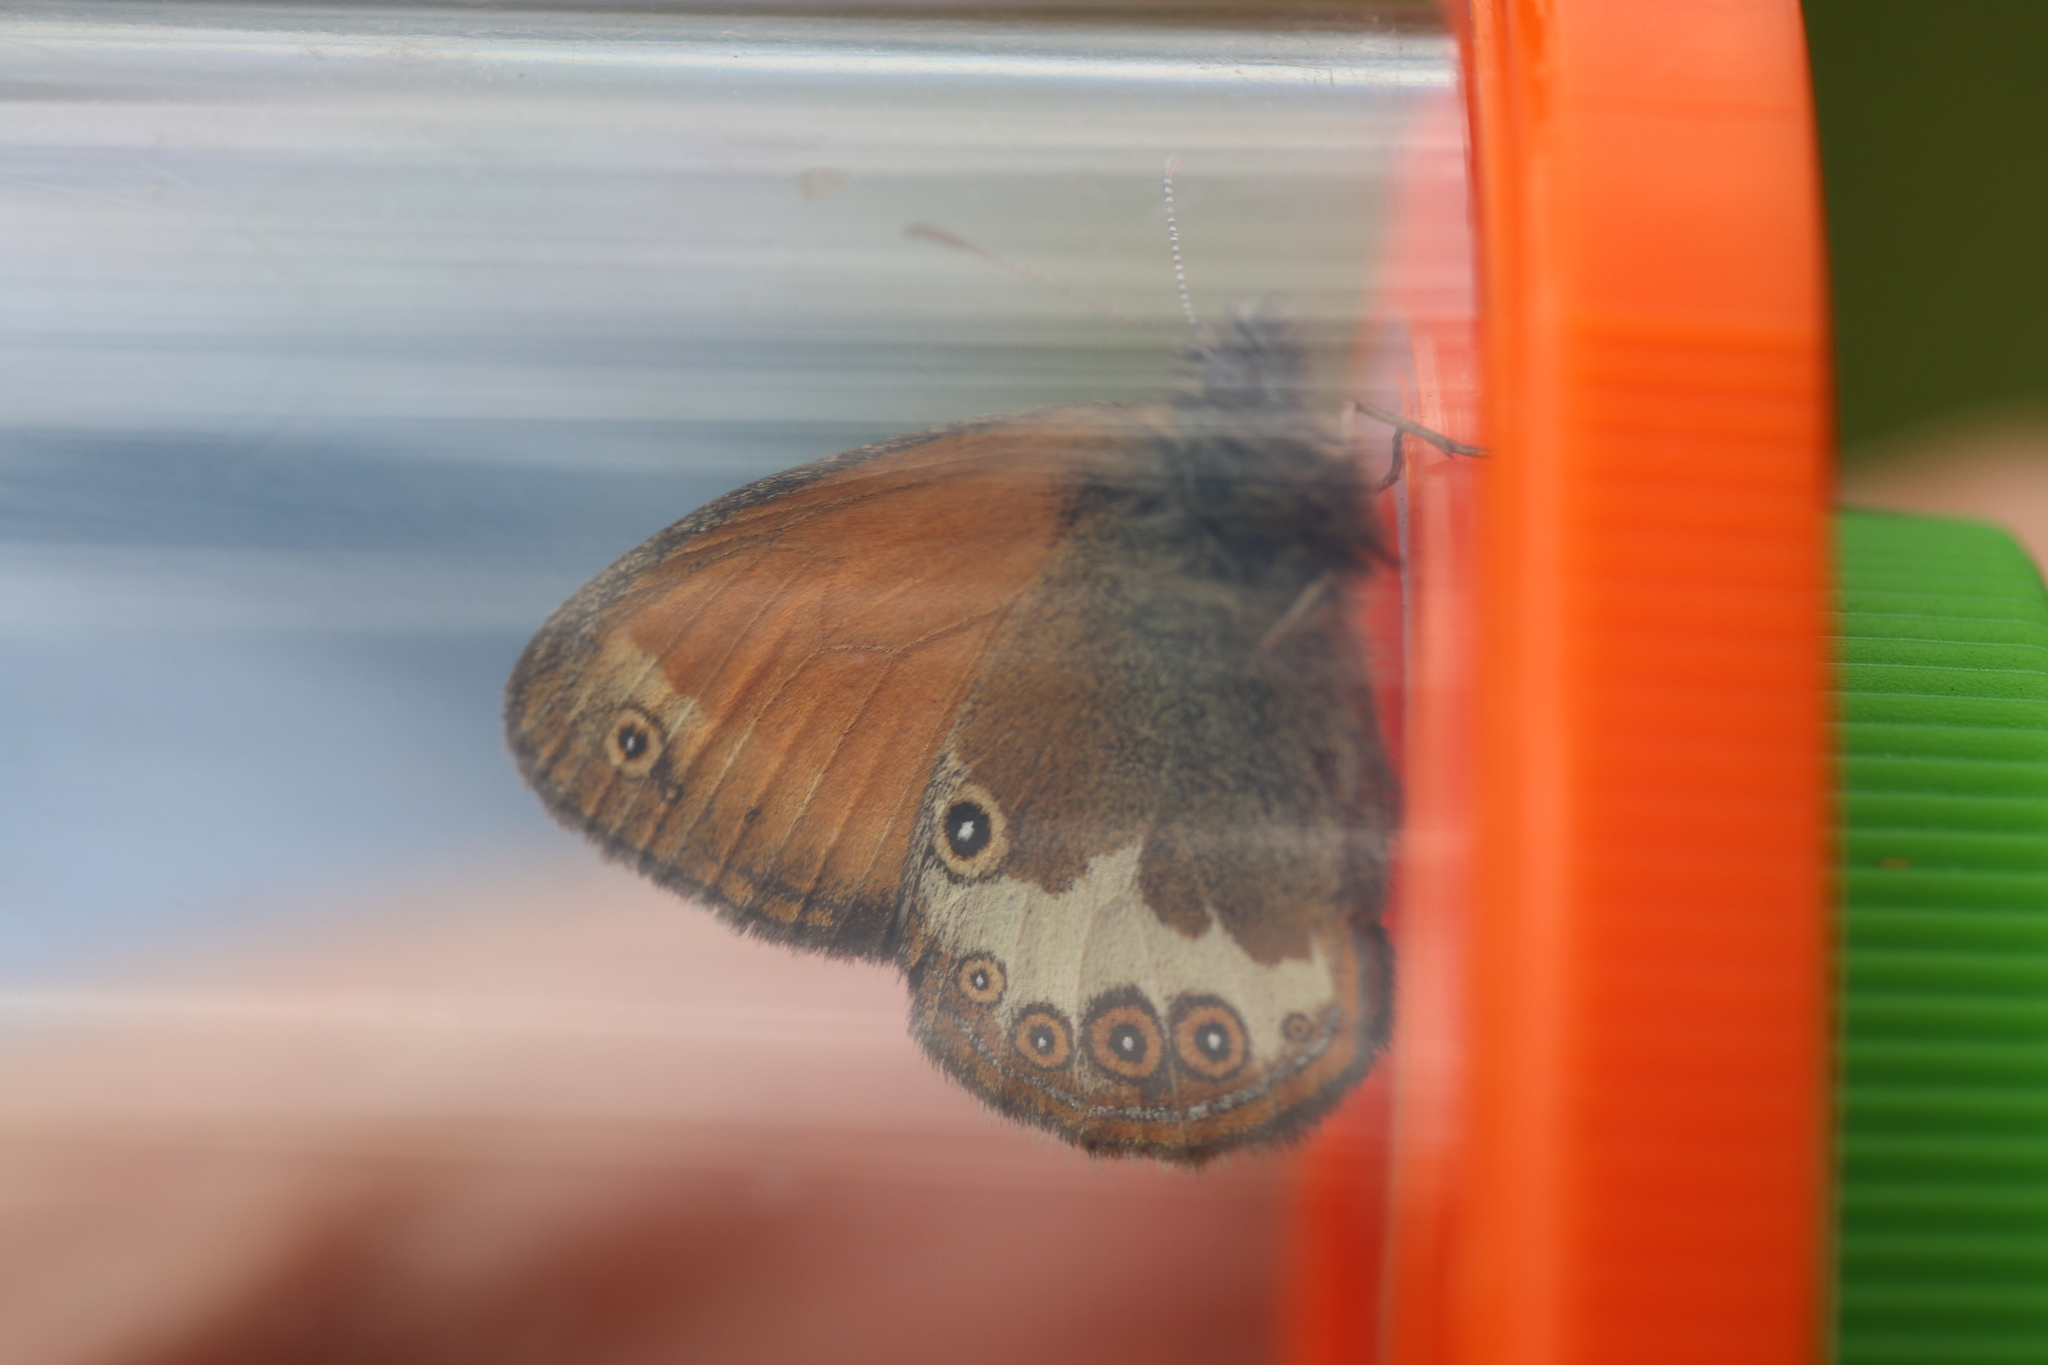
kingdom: Animalia
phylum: Arthropoda
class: Insecta
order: Lepidoptera
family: Nymphalidae
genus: Coenonympha
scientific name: Coenonympha arcania
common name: Pearly heath
